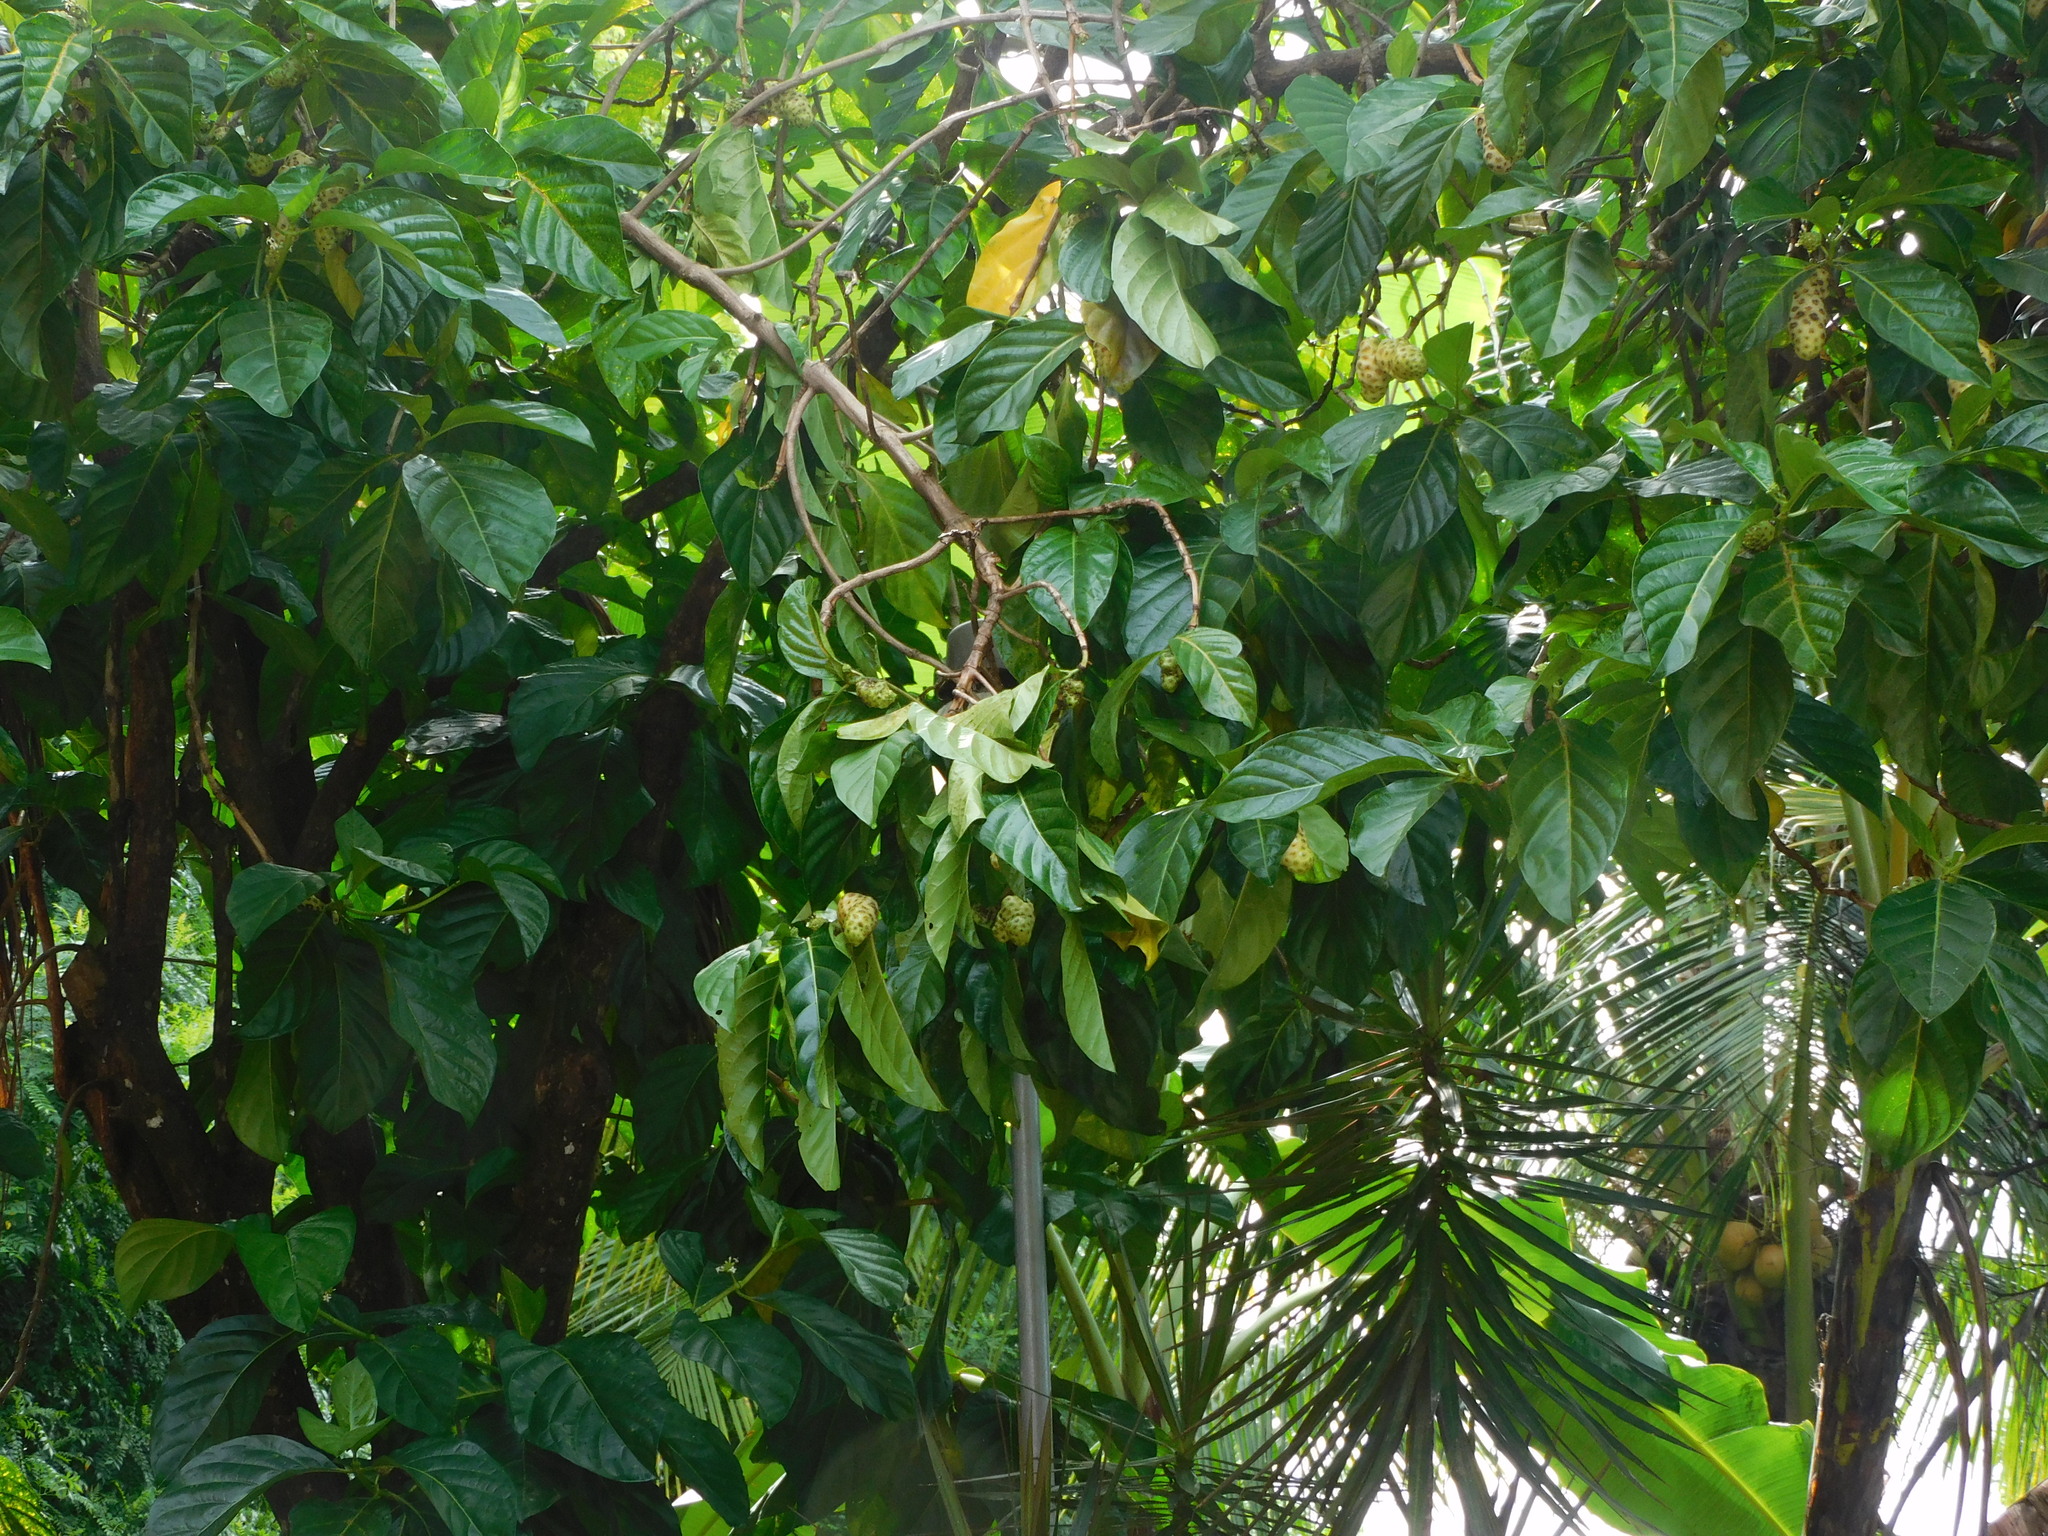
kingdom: Plantae
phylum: Tracheophyta
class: Magnoliopsida
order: Gentianales
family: Rubiaceae
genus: Morinda
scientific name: Morinda citrifolia
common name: Indian-mulberry
